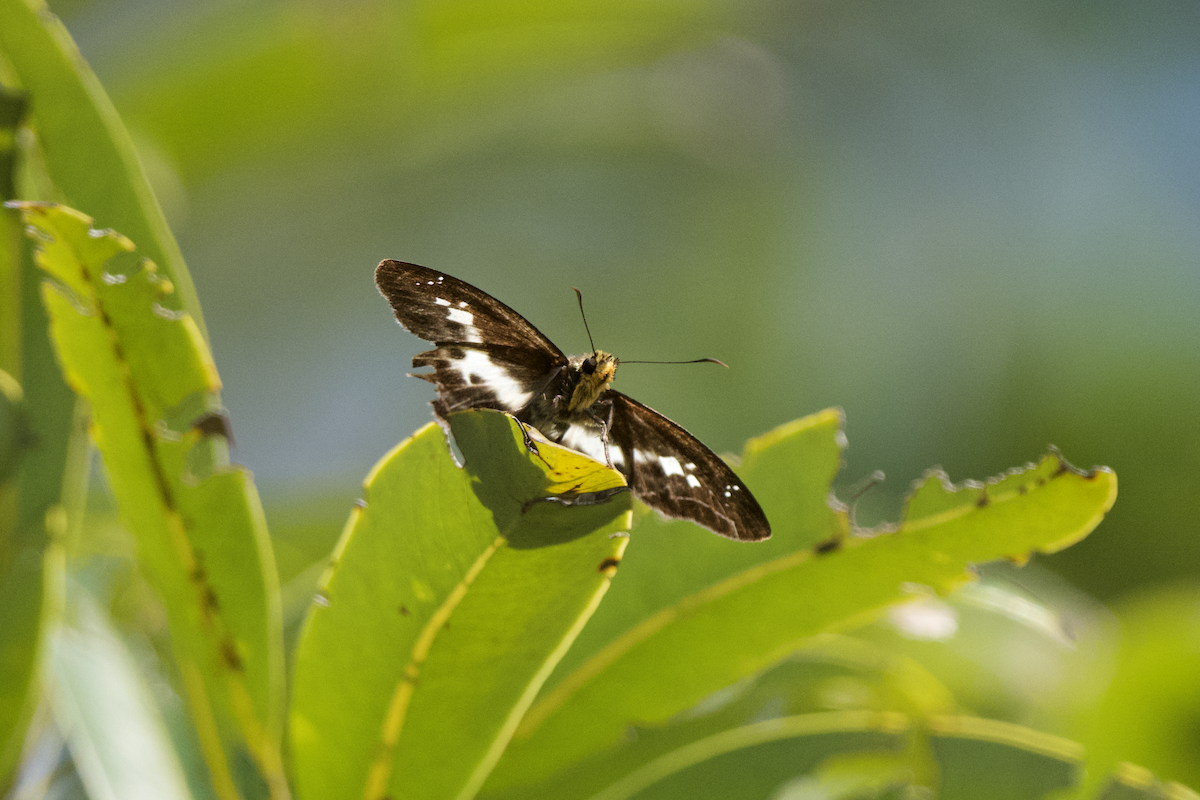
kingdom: Animalia
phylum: Arthropoda
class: Insecta
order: Lepidoptera
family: Hesperiidae
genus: Daimio
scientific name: Daimio Gerosis phisara
